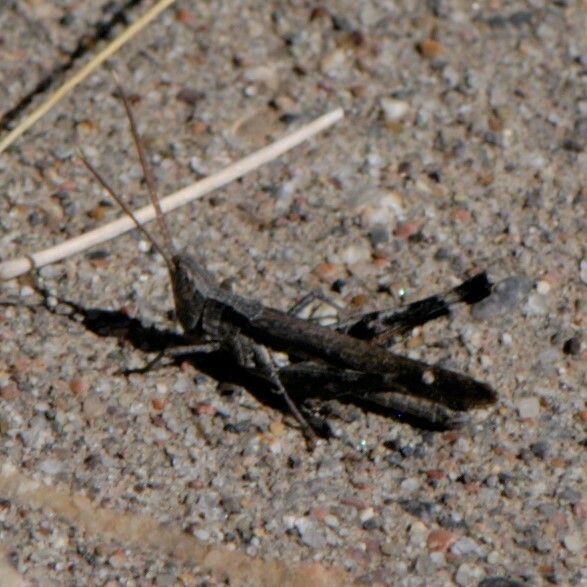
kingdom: Animalia
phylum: Arthropoda
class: Insecta
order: Orthoptera
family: Acrididae
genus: Acantherus
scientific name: Acantherus piperatus
